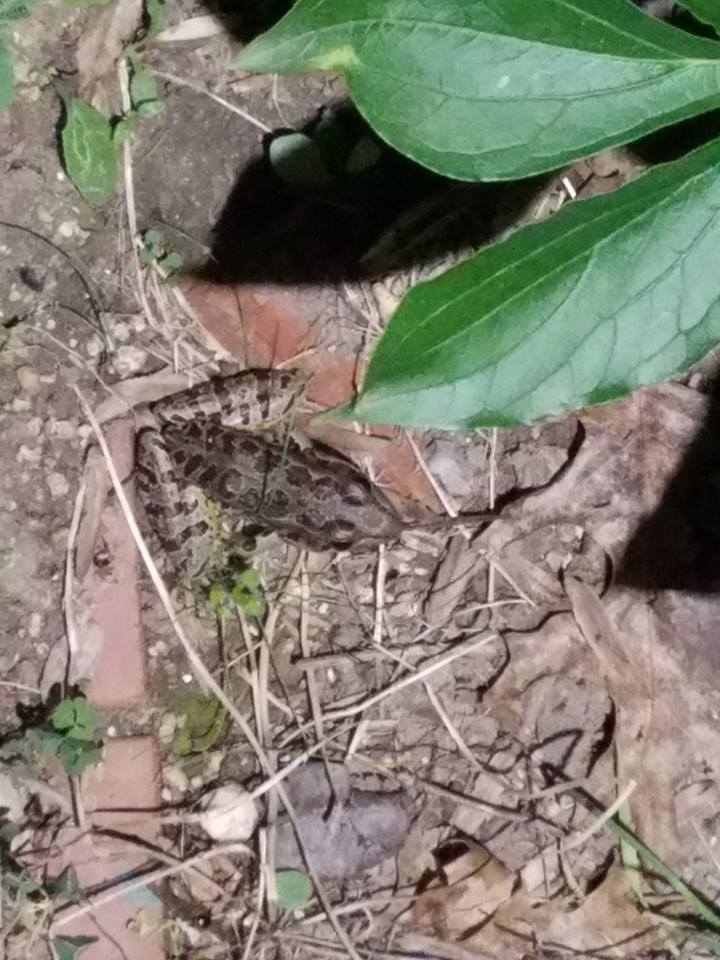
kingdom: Animalia
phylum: Chordata
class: Amphibia
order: Anura
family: Ranidae
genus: Lithobates
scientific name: Lithobates palustris
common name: Pickerel frog
